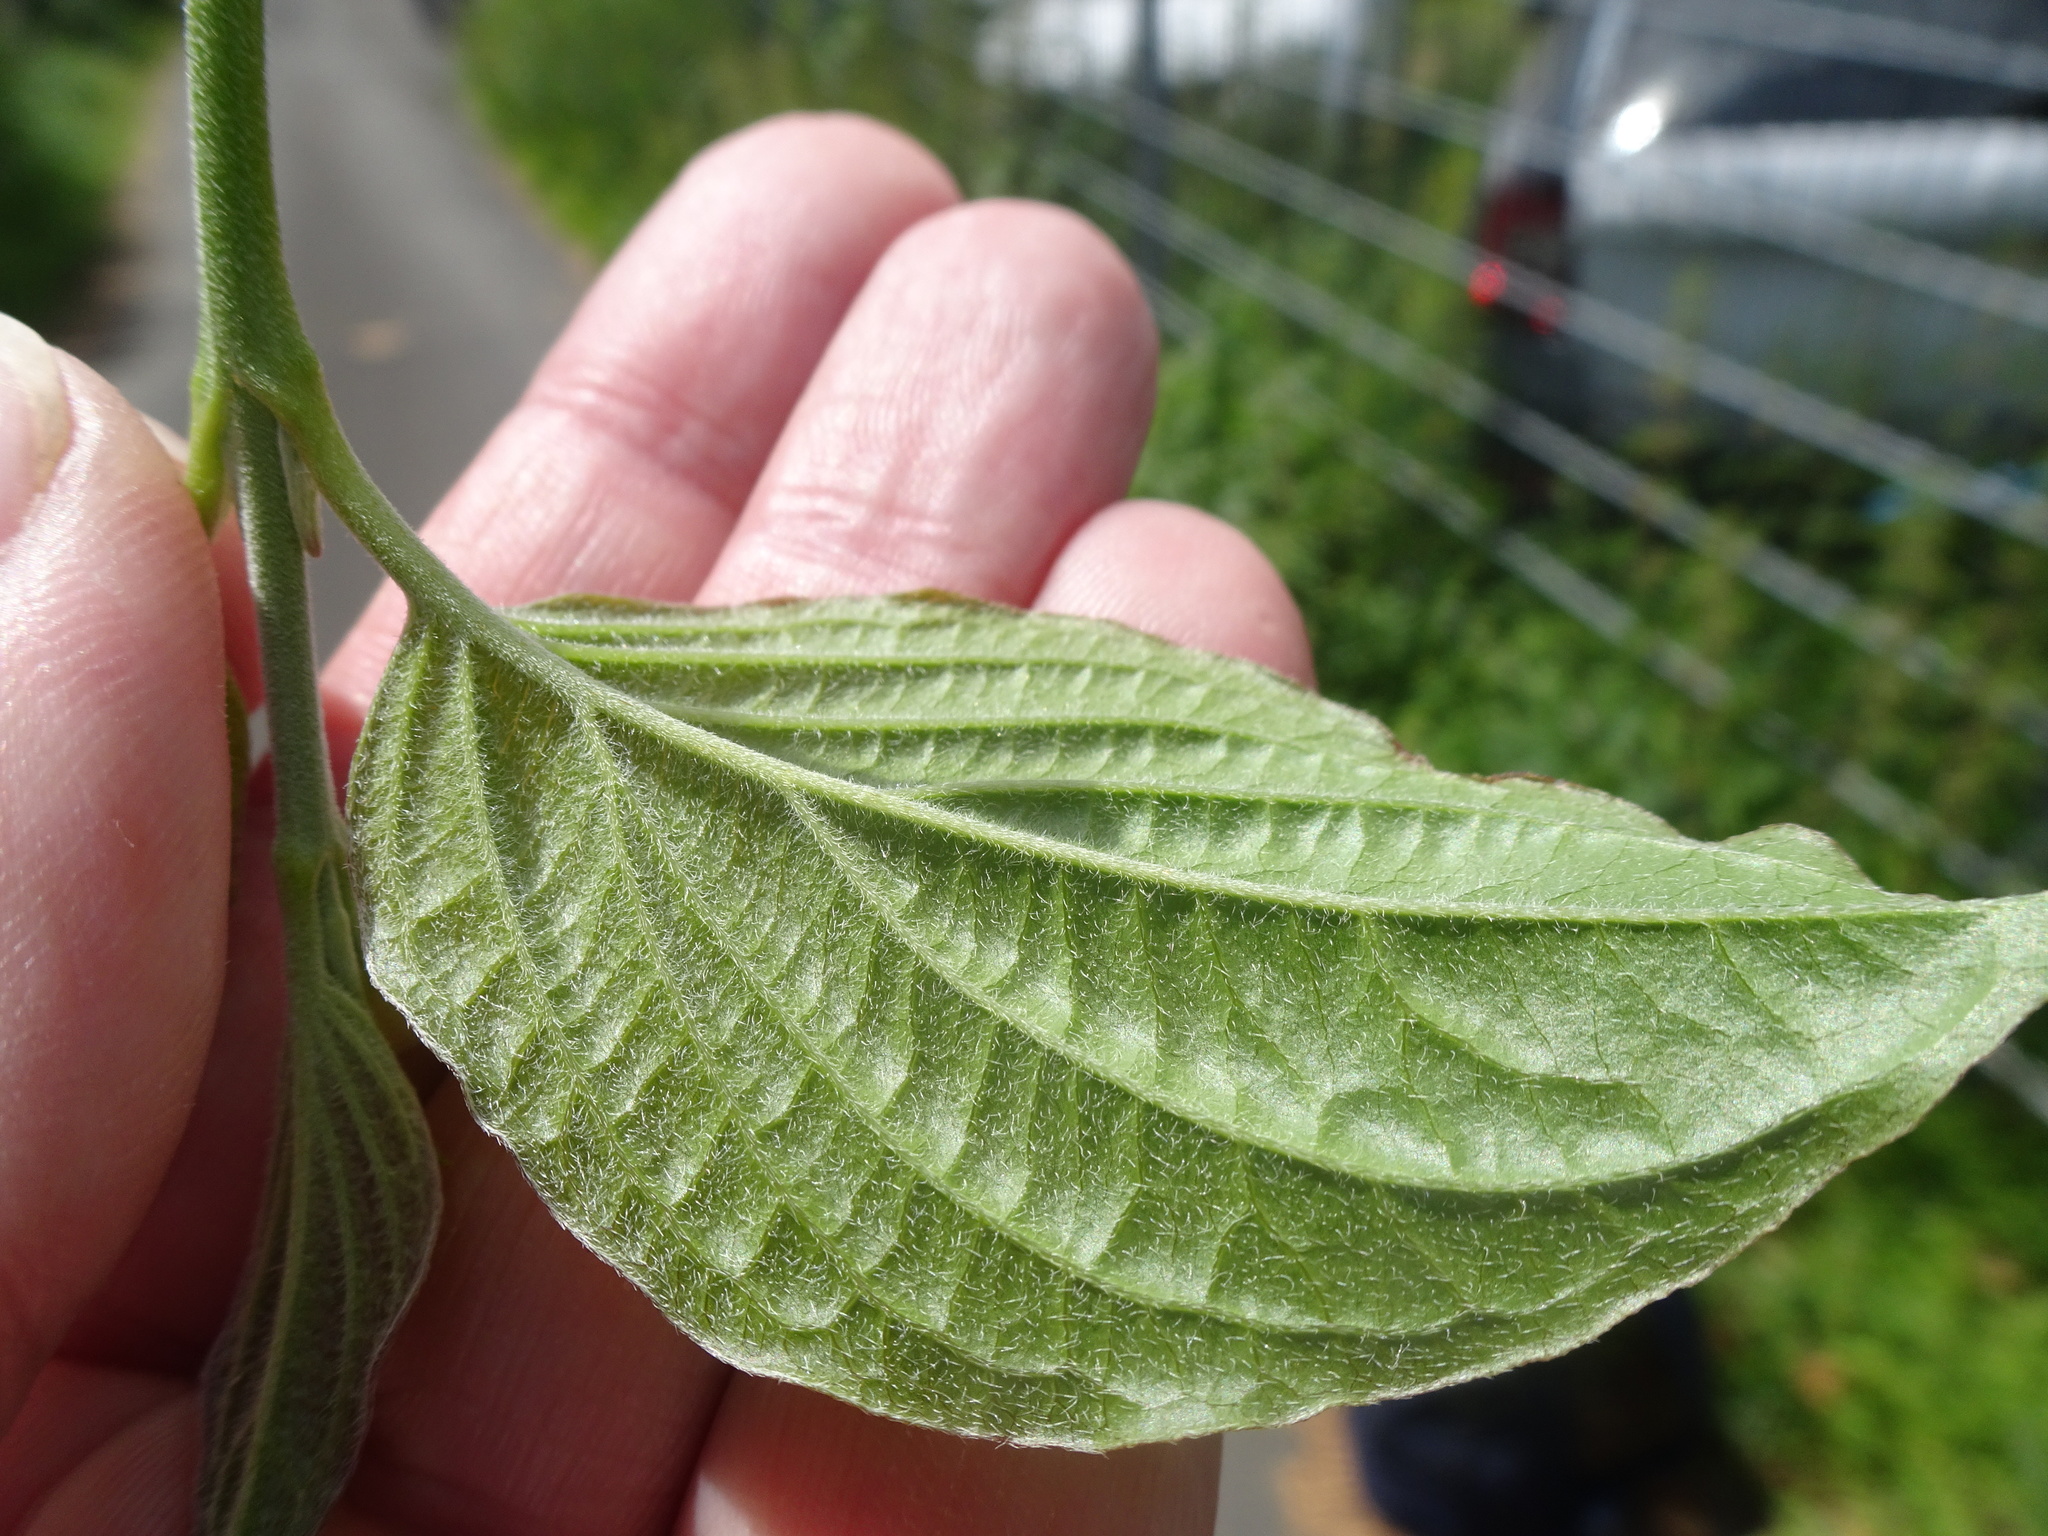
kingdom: Plantae
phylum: Tracheophyta
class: Magnoliopsida
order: Cornales
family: Cornaceae
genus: Cornus
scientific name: Cornus sanguinea
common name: Dogwood
